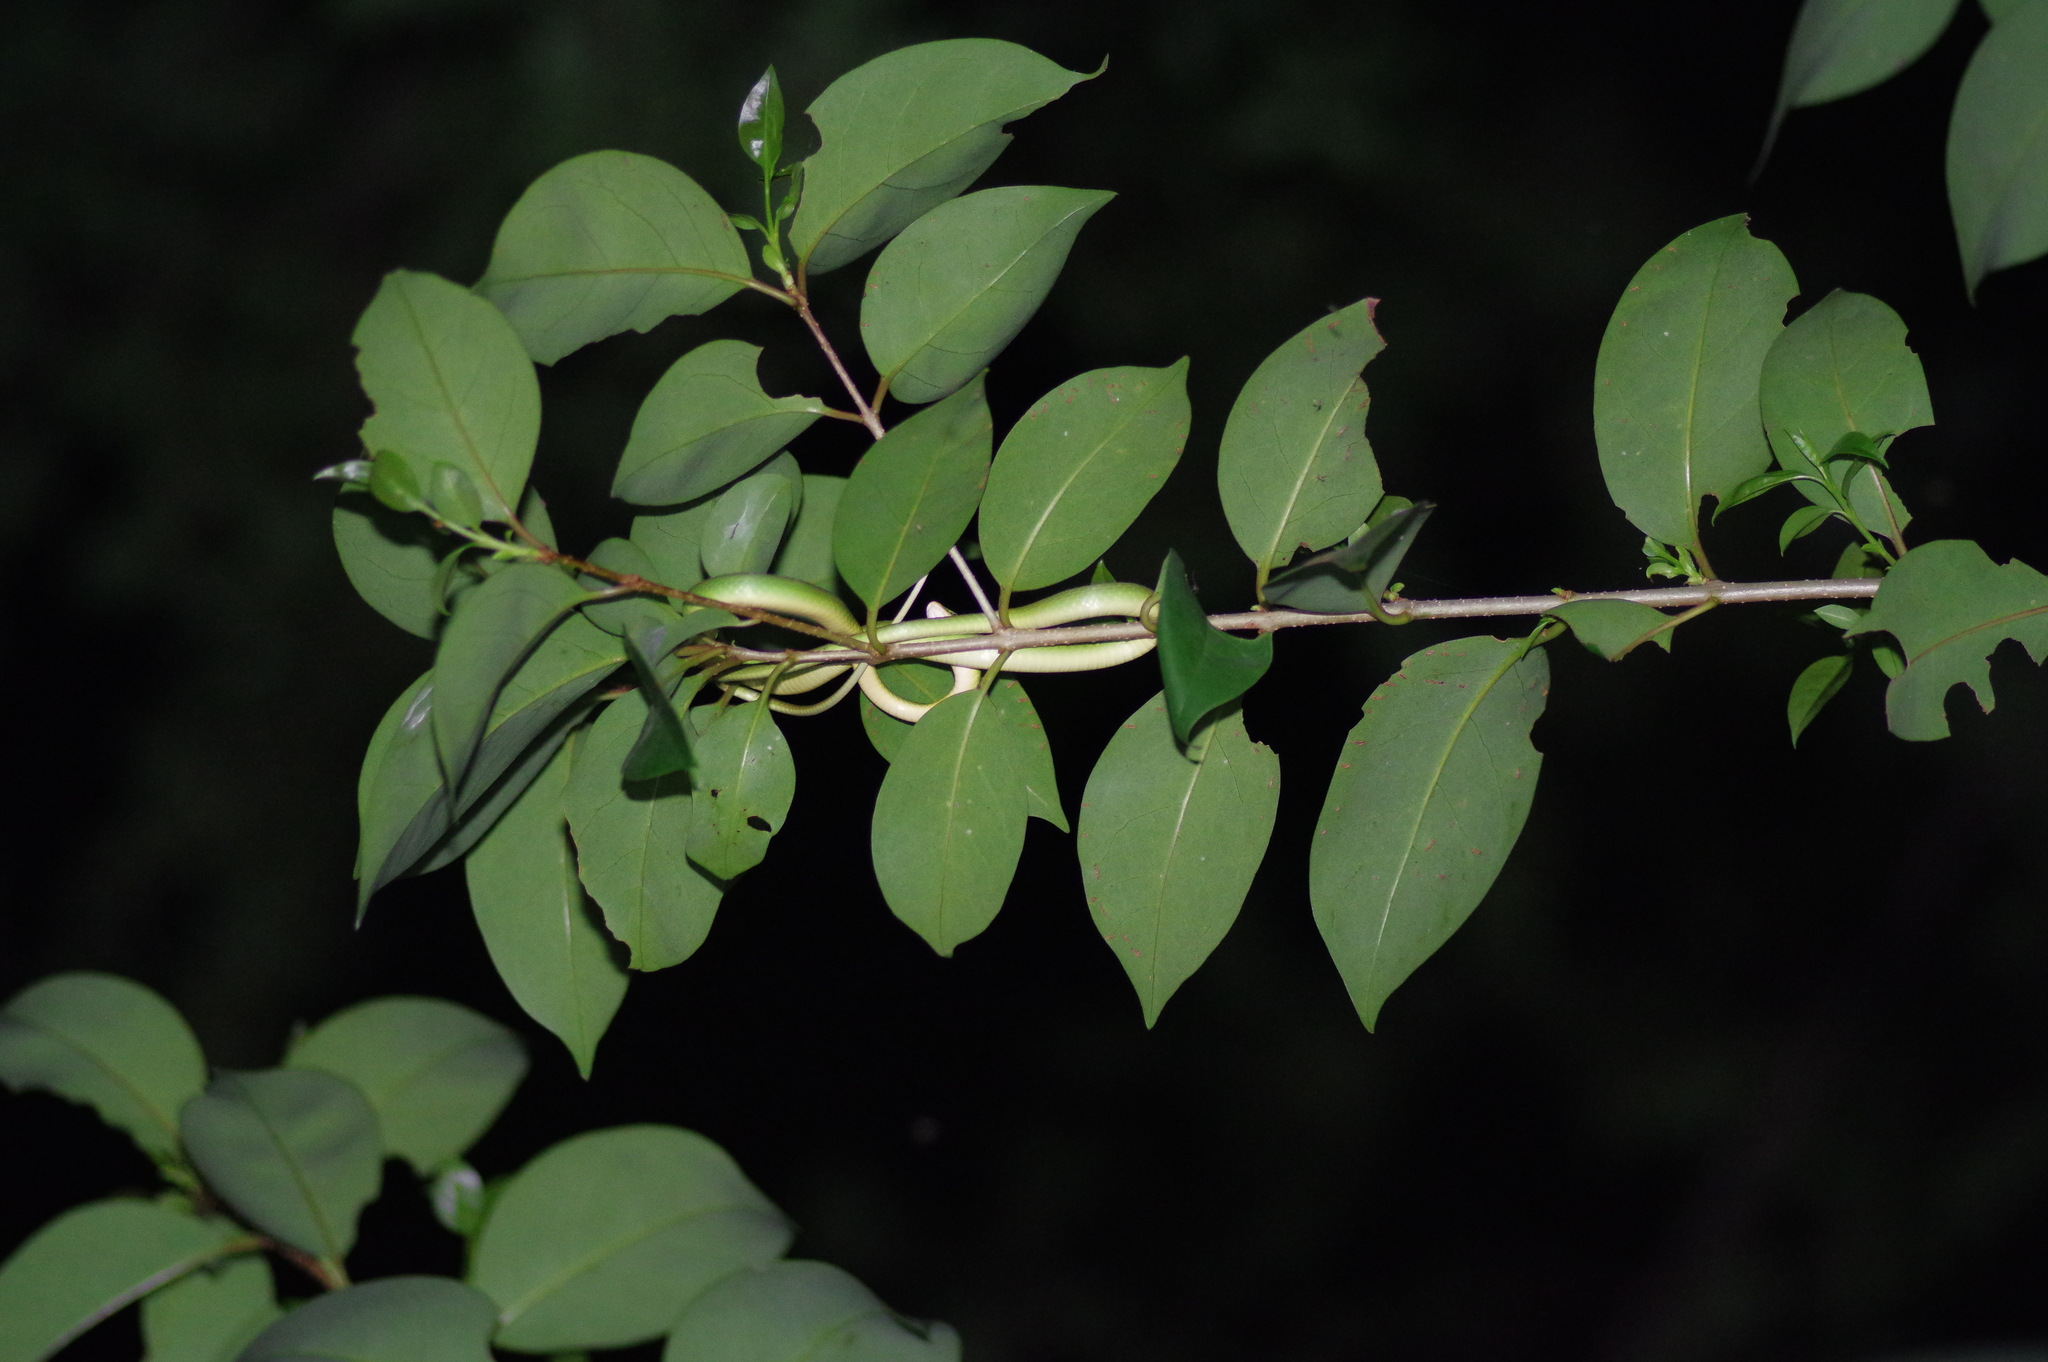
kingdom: Animalia
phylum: Chordata
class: Squamata
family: Colubridae
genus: Opheodrys
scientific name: Opheodrys aestivus
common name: Rough greensnake
